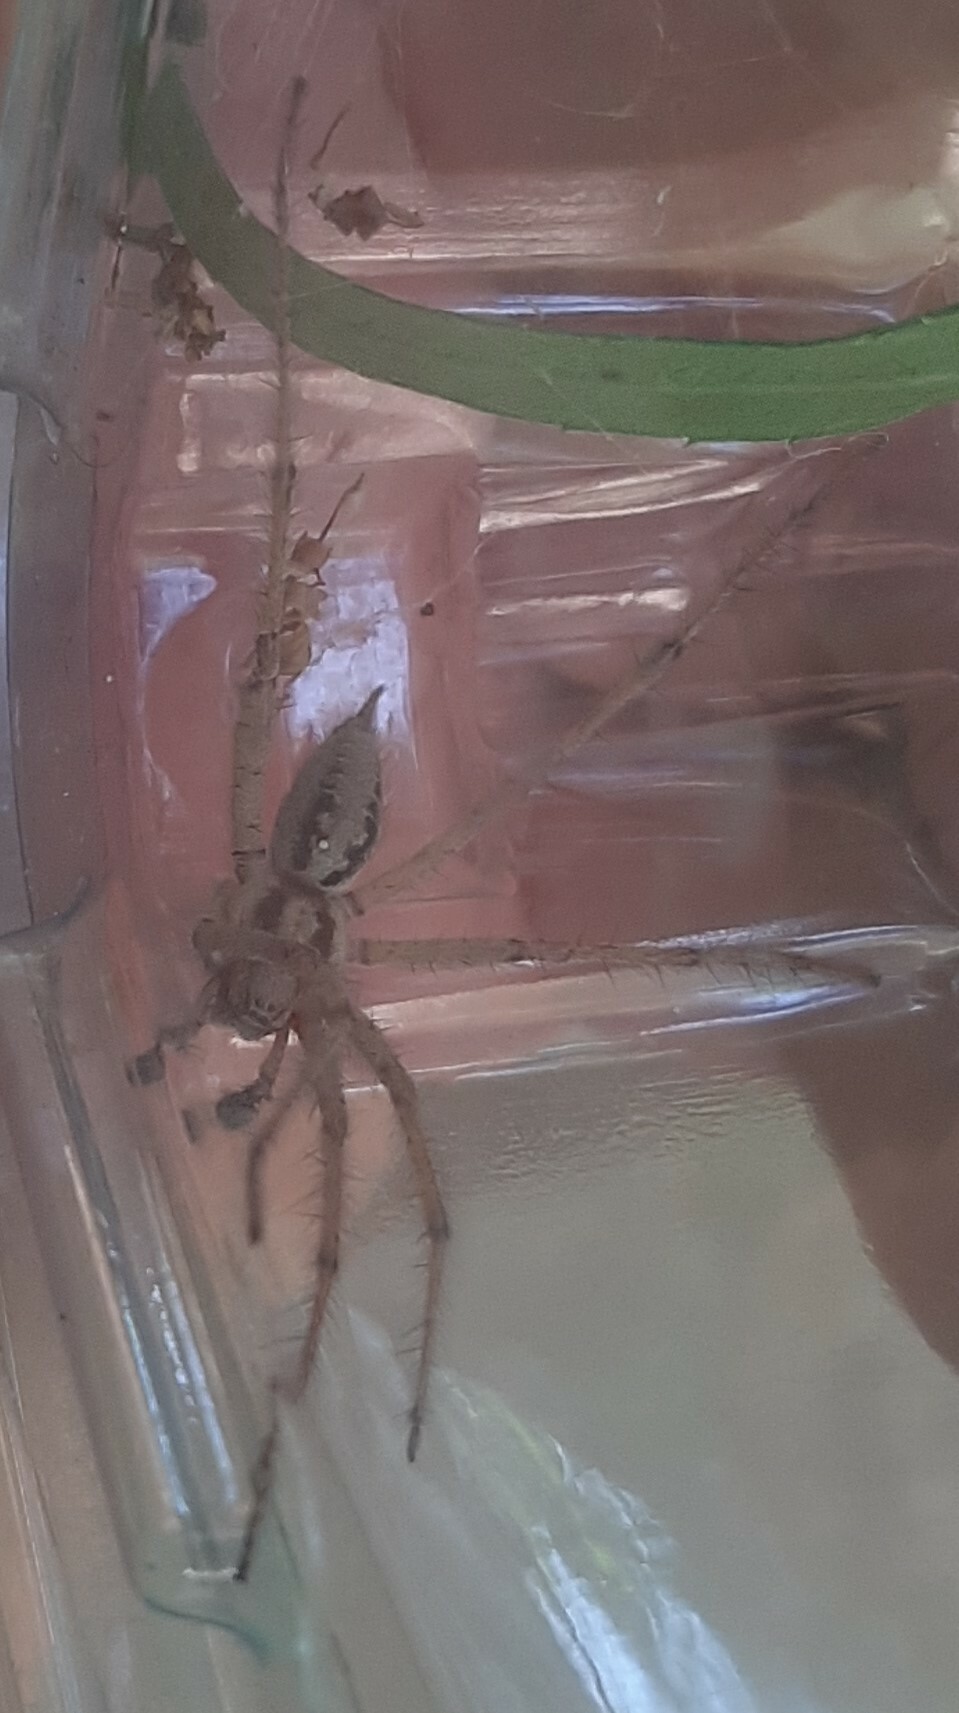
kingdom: Animalia
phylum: Arthropoda
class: Arachnida
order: Araneae
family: Agelenidae
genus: Agelena
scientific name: Agelena labyrinthica
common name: Labyrinth spider
